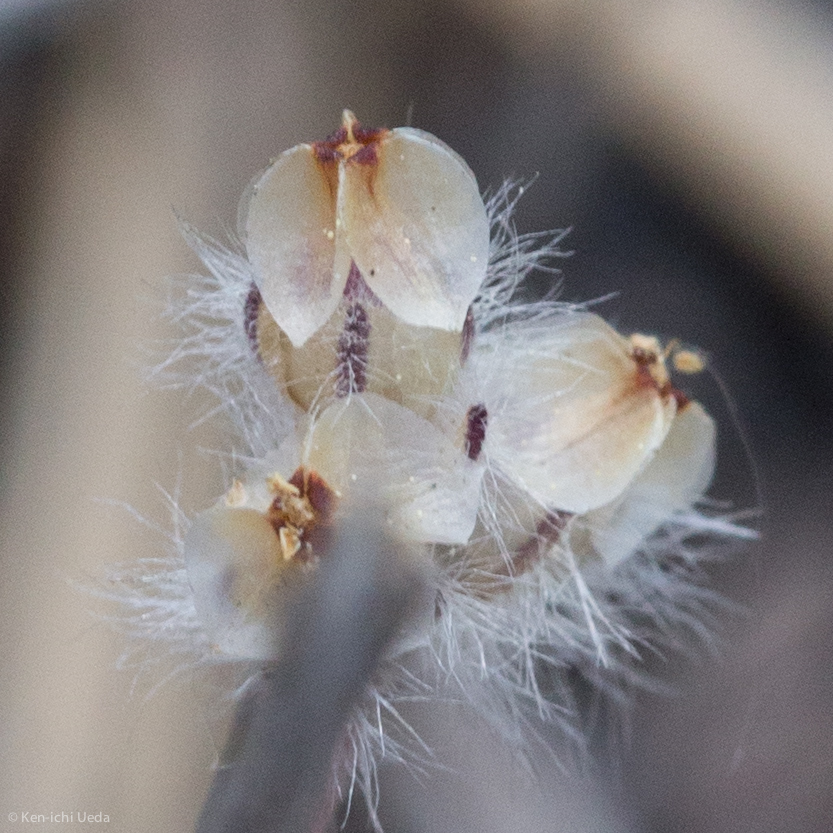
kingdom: Plantae
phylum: Tracheophyta
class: Magnoliopsida
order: Lamiales
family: Plantaginaceae
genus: Plantago
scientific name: Plantago erecta
